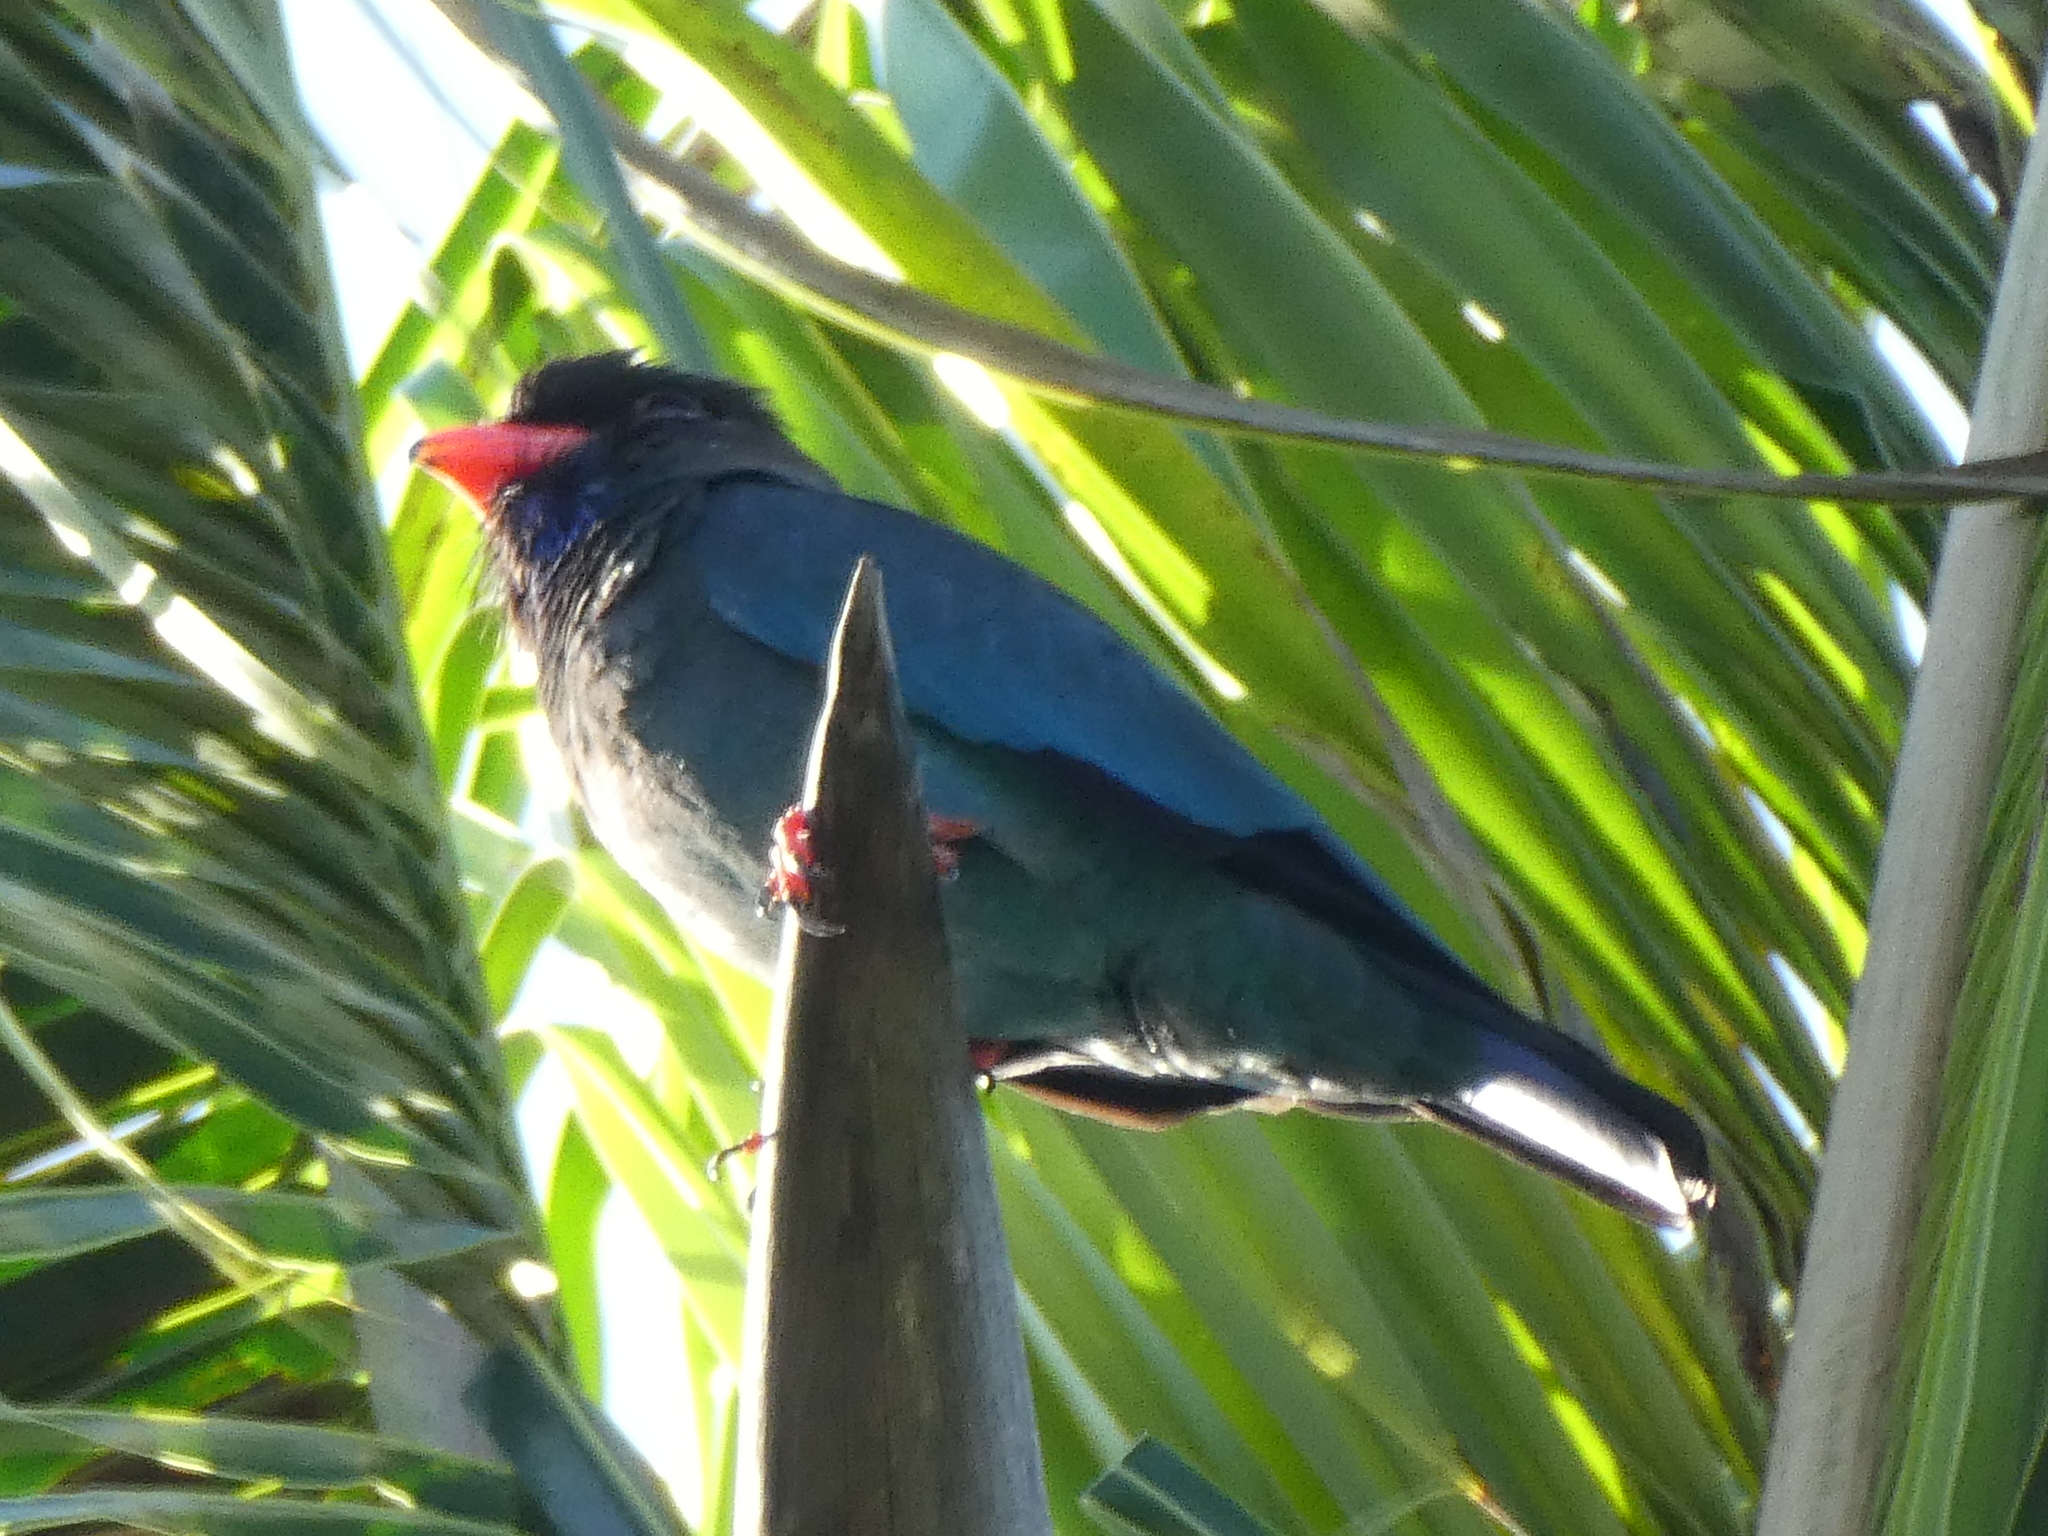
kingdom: Animalia
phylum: Chordata
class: Aves
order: Coraciiformes
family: Coraciidae
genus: Eurystomus
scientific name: Eurystomus orientalis
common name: Oriental dollarbird
